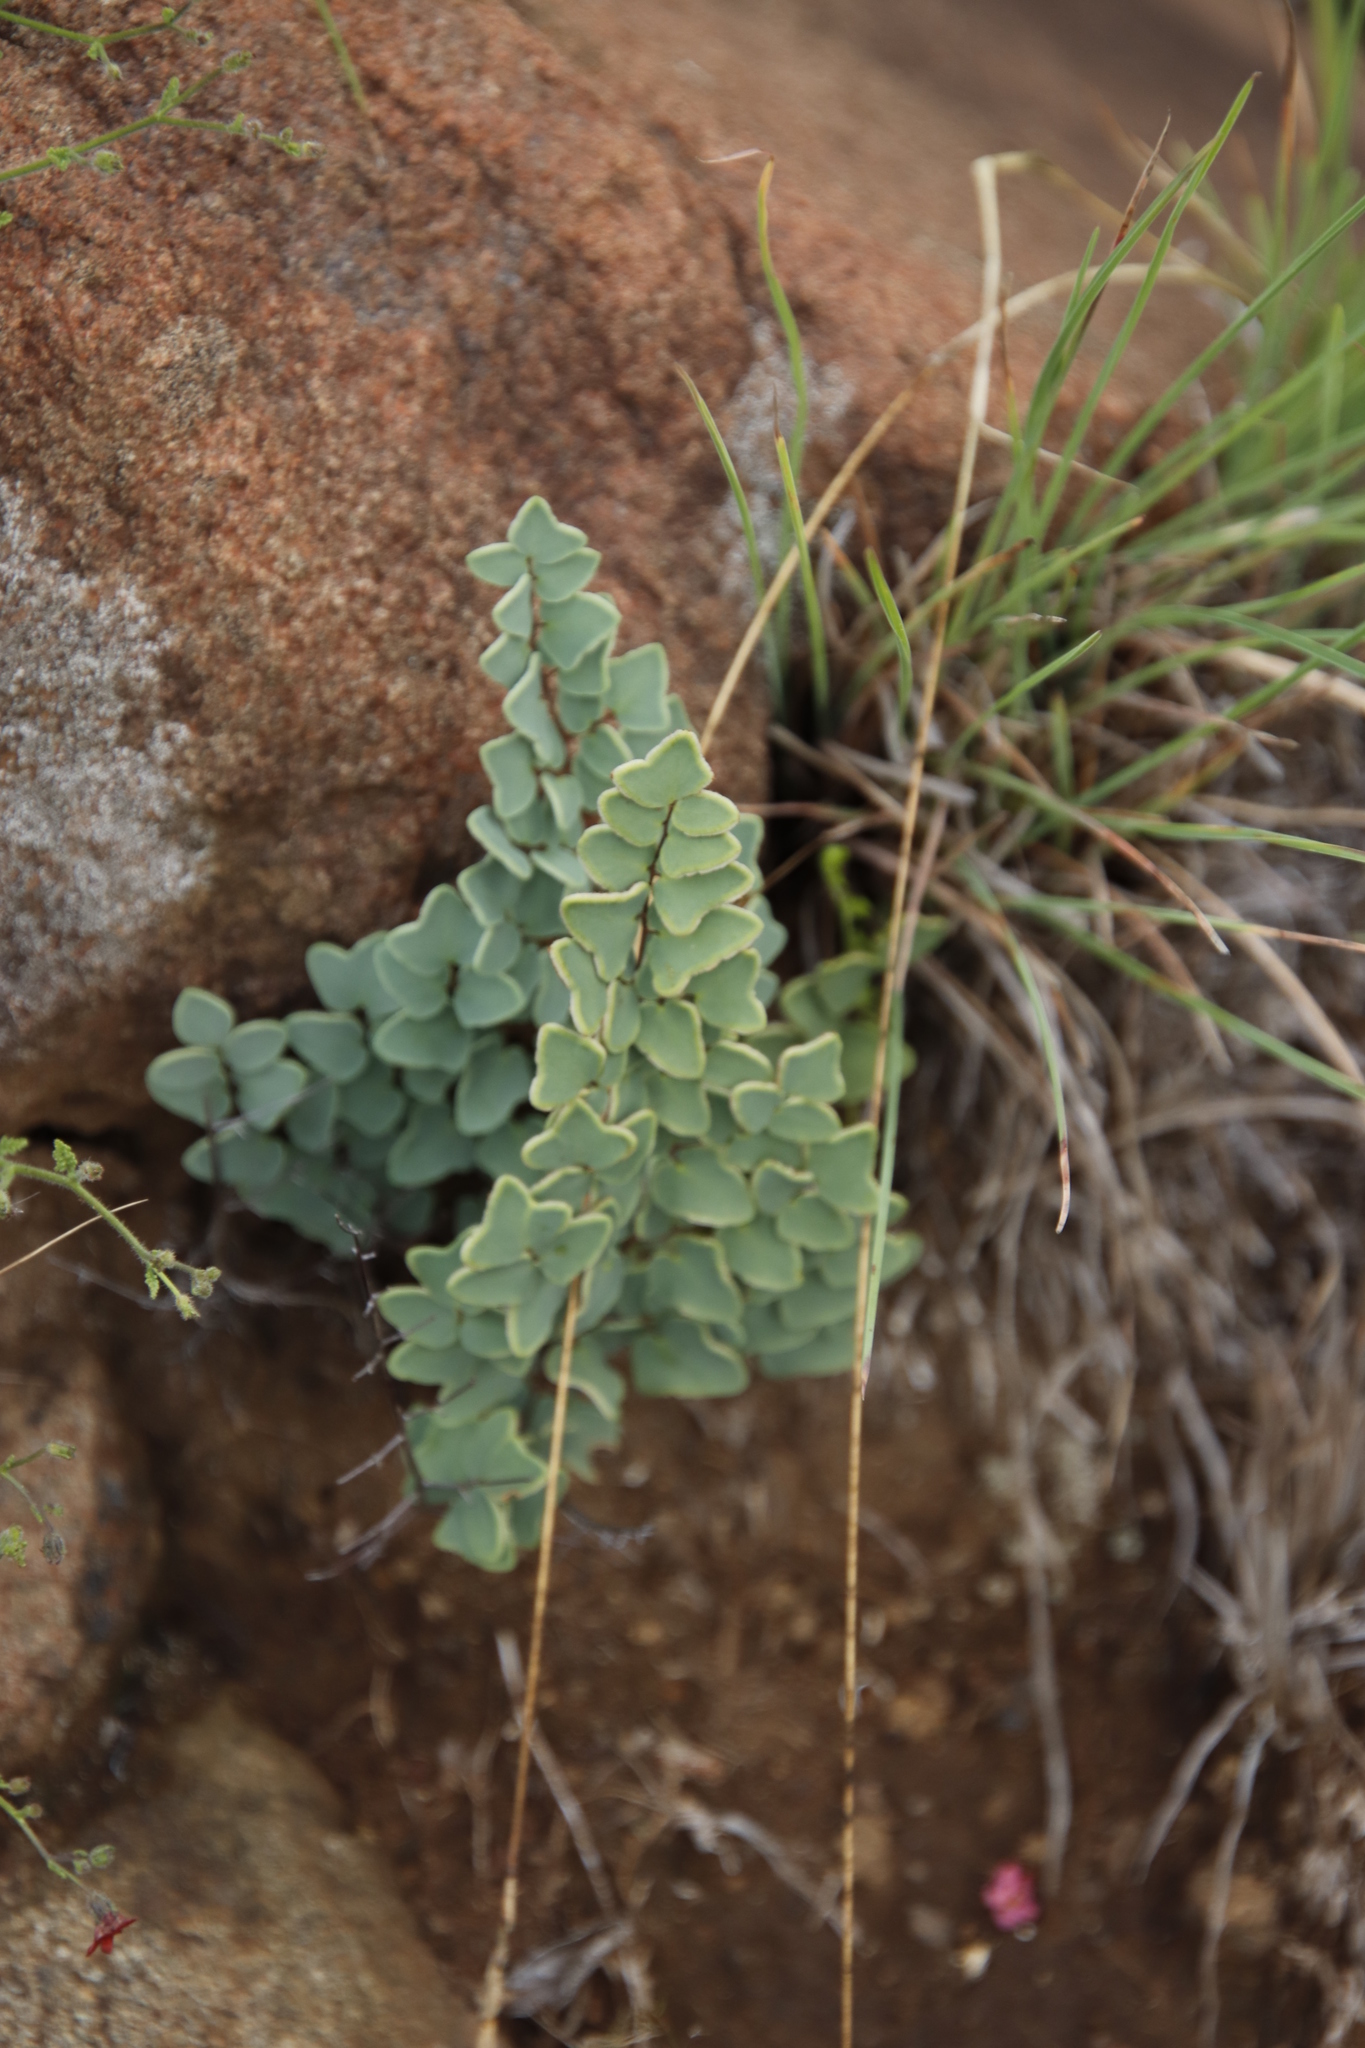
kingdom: Plantae
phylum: Tracheophyta
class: Polypodiopsida
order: Polypodiales
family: Pteridaceae
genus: Pellaea
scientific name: Pellaea calomelanos
